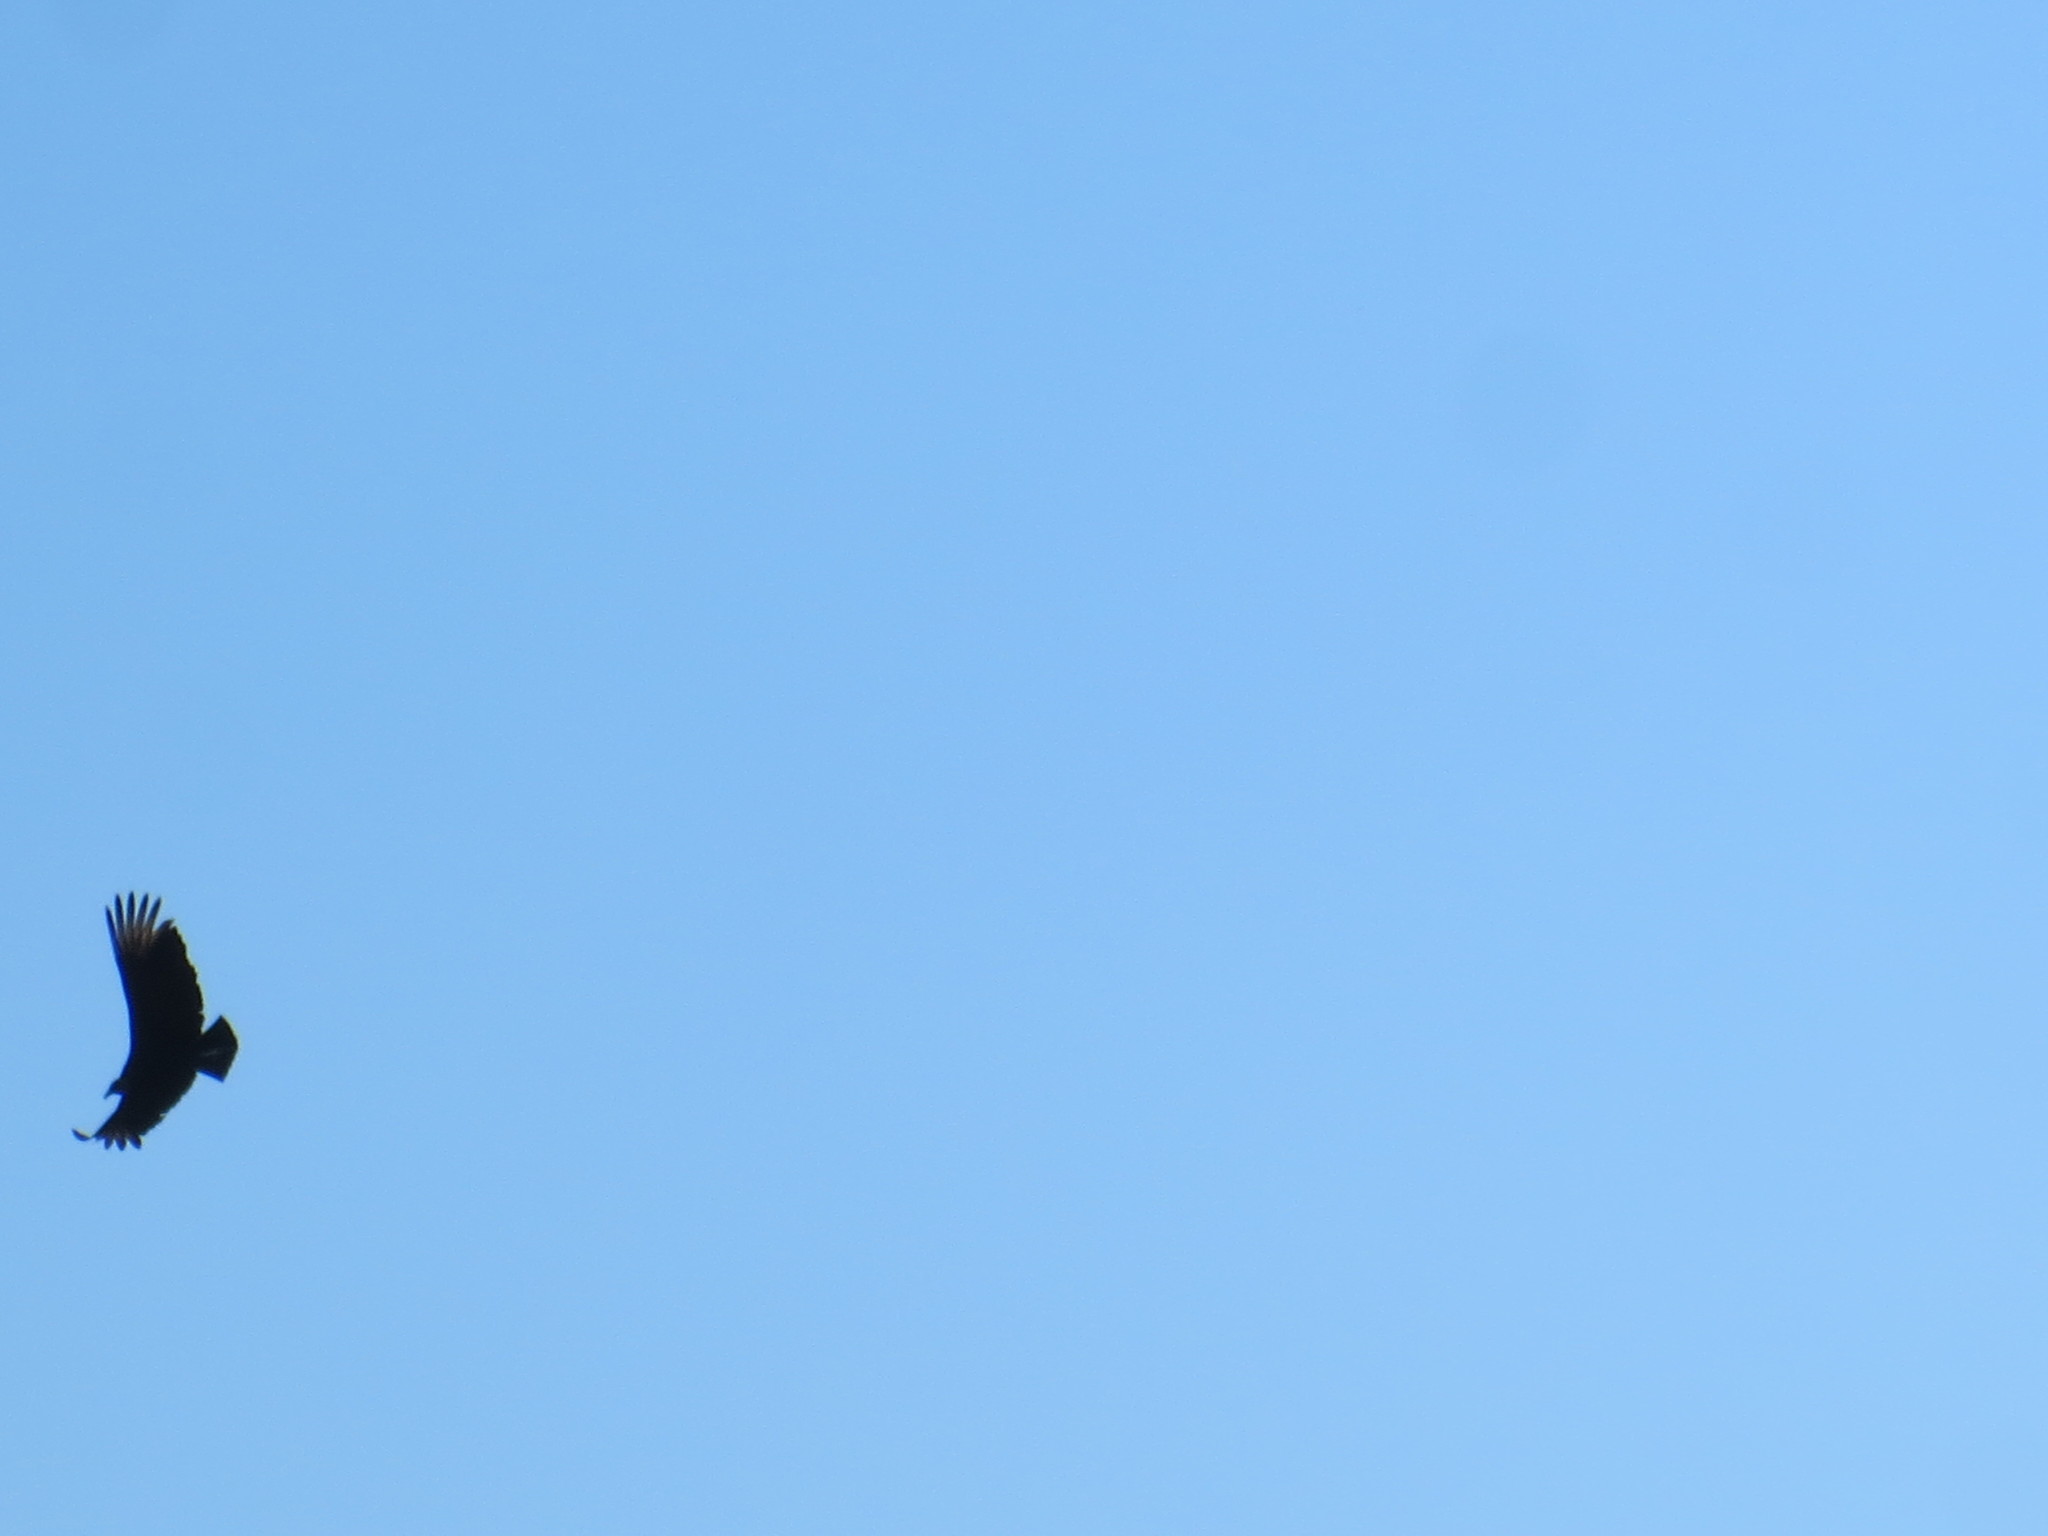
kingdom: Animalia
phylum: Chordata
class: Aves
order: Accipitriformes
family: Cathartidae
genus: Coragyps
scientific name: Coragyps atratus
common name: Black vulture
